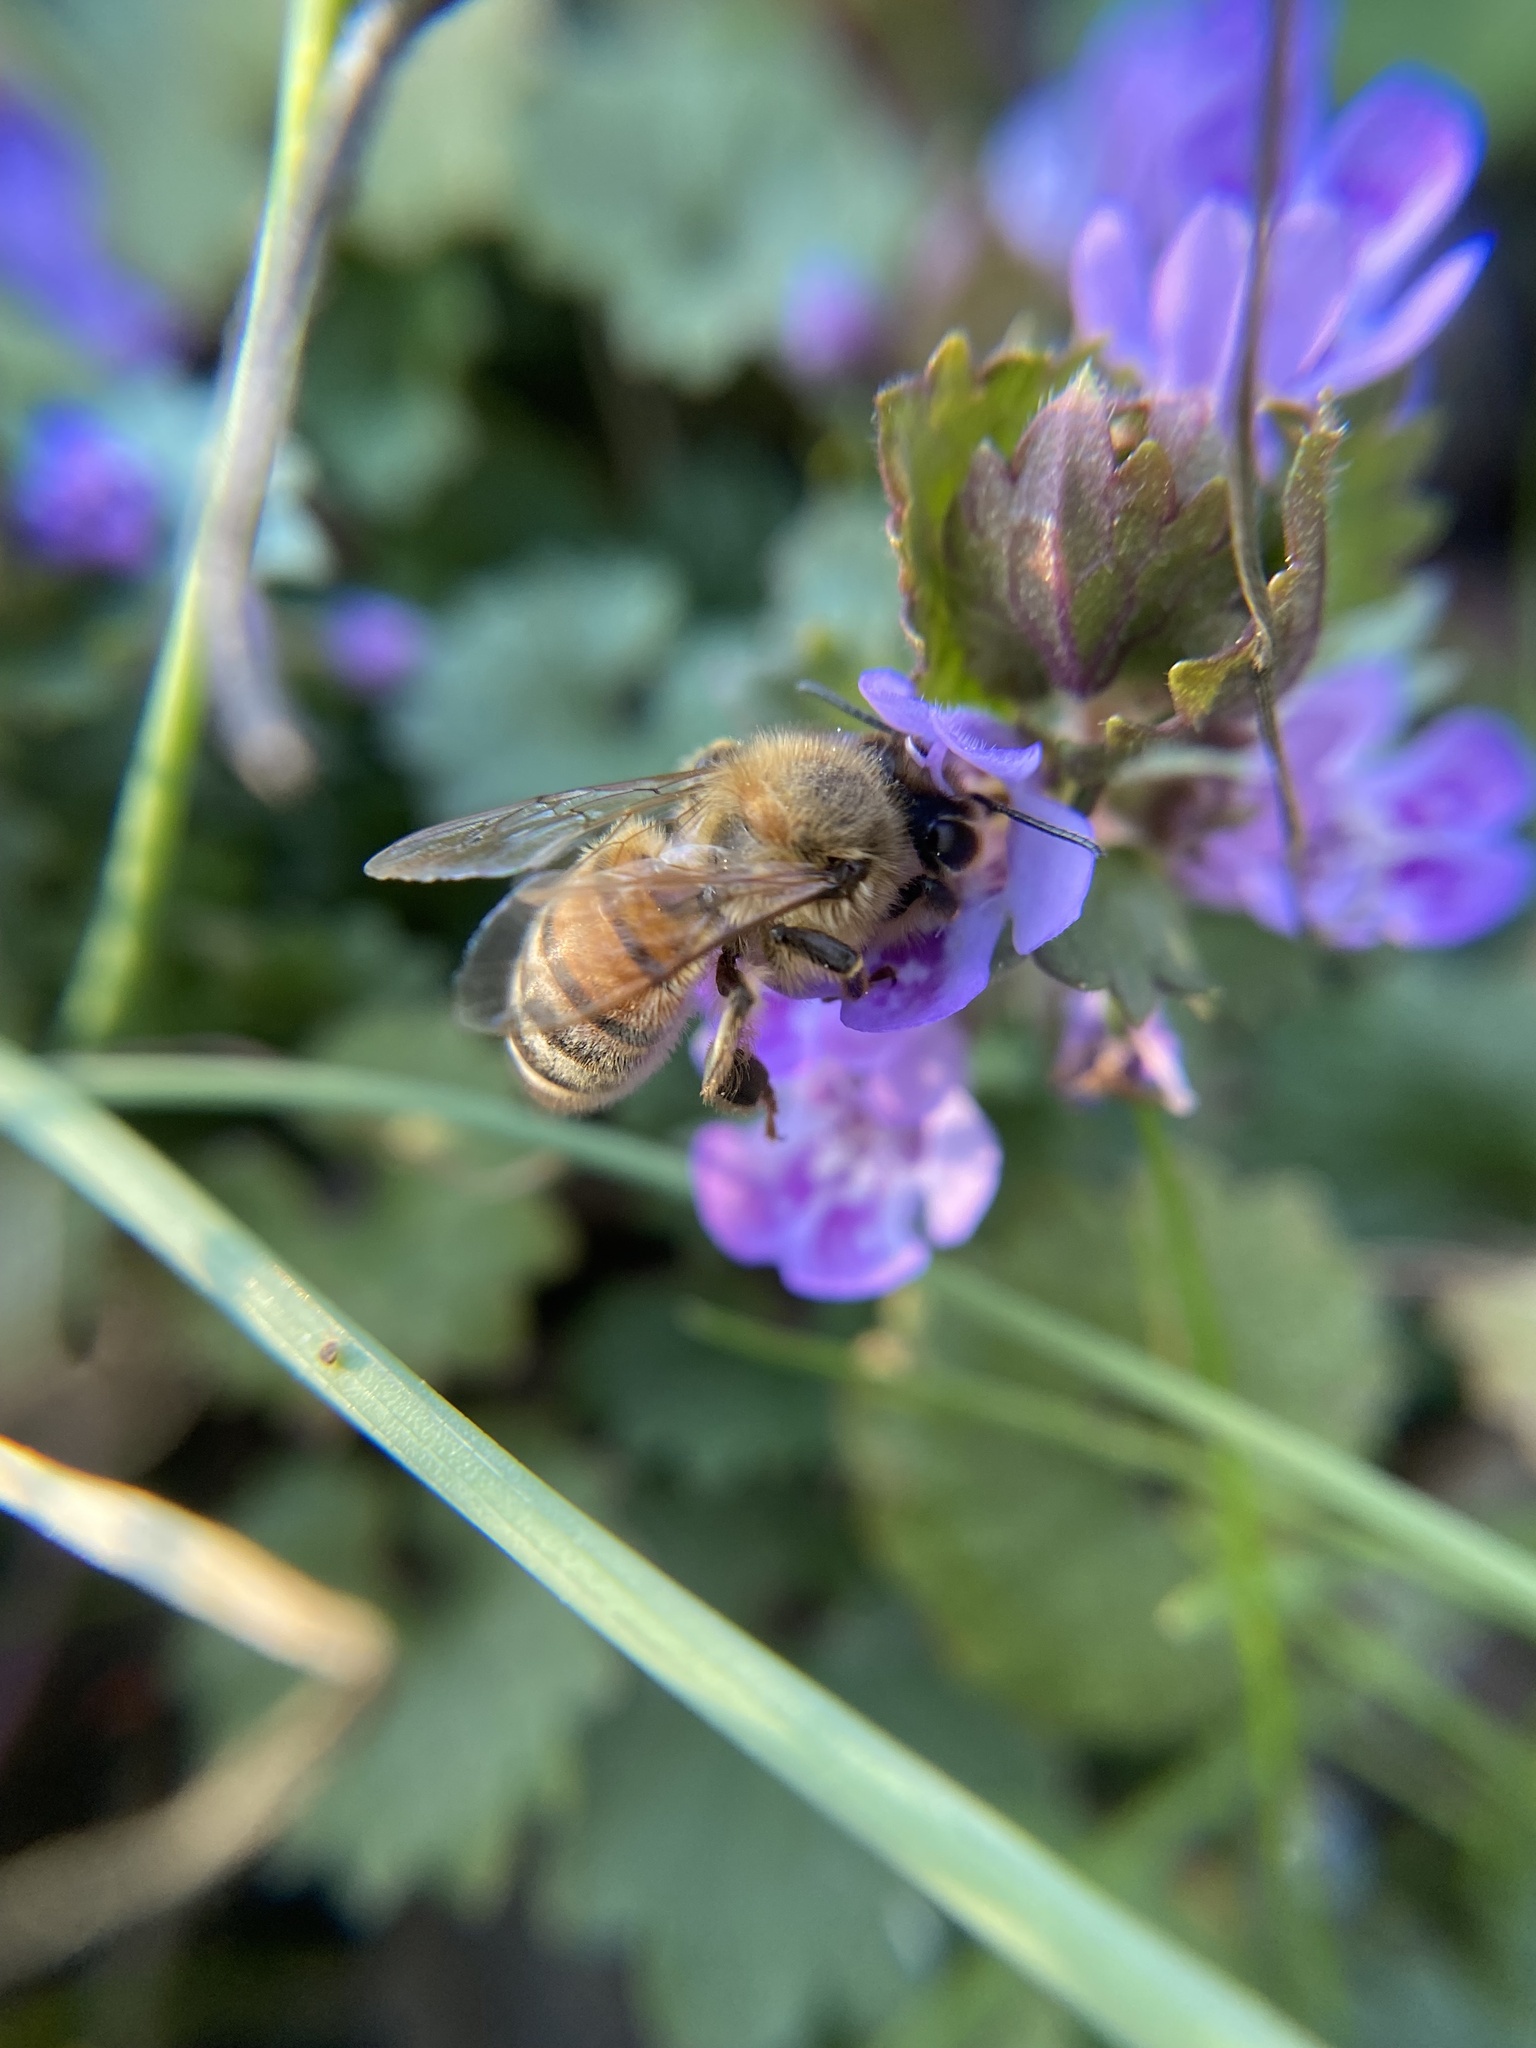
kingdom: Animalia
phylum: Arthropoda
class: Insecta
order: Hymenoptera
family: Apidae
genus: Apis
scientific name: Apis mellifera
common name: Honey bee
